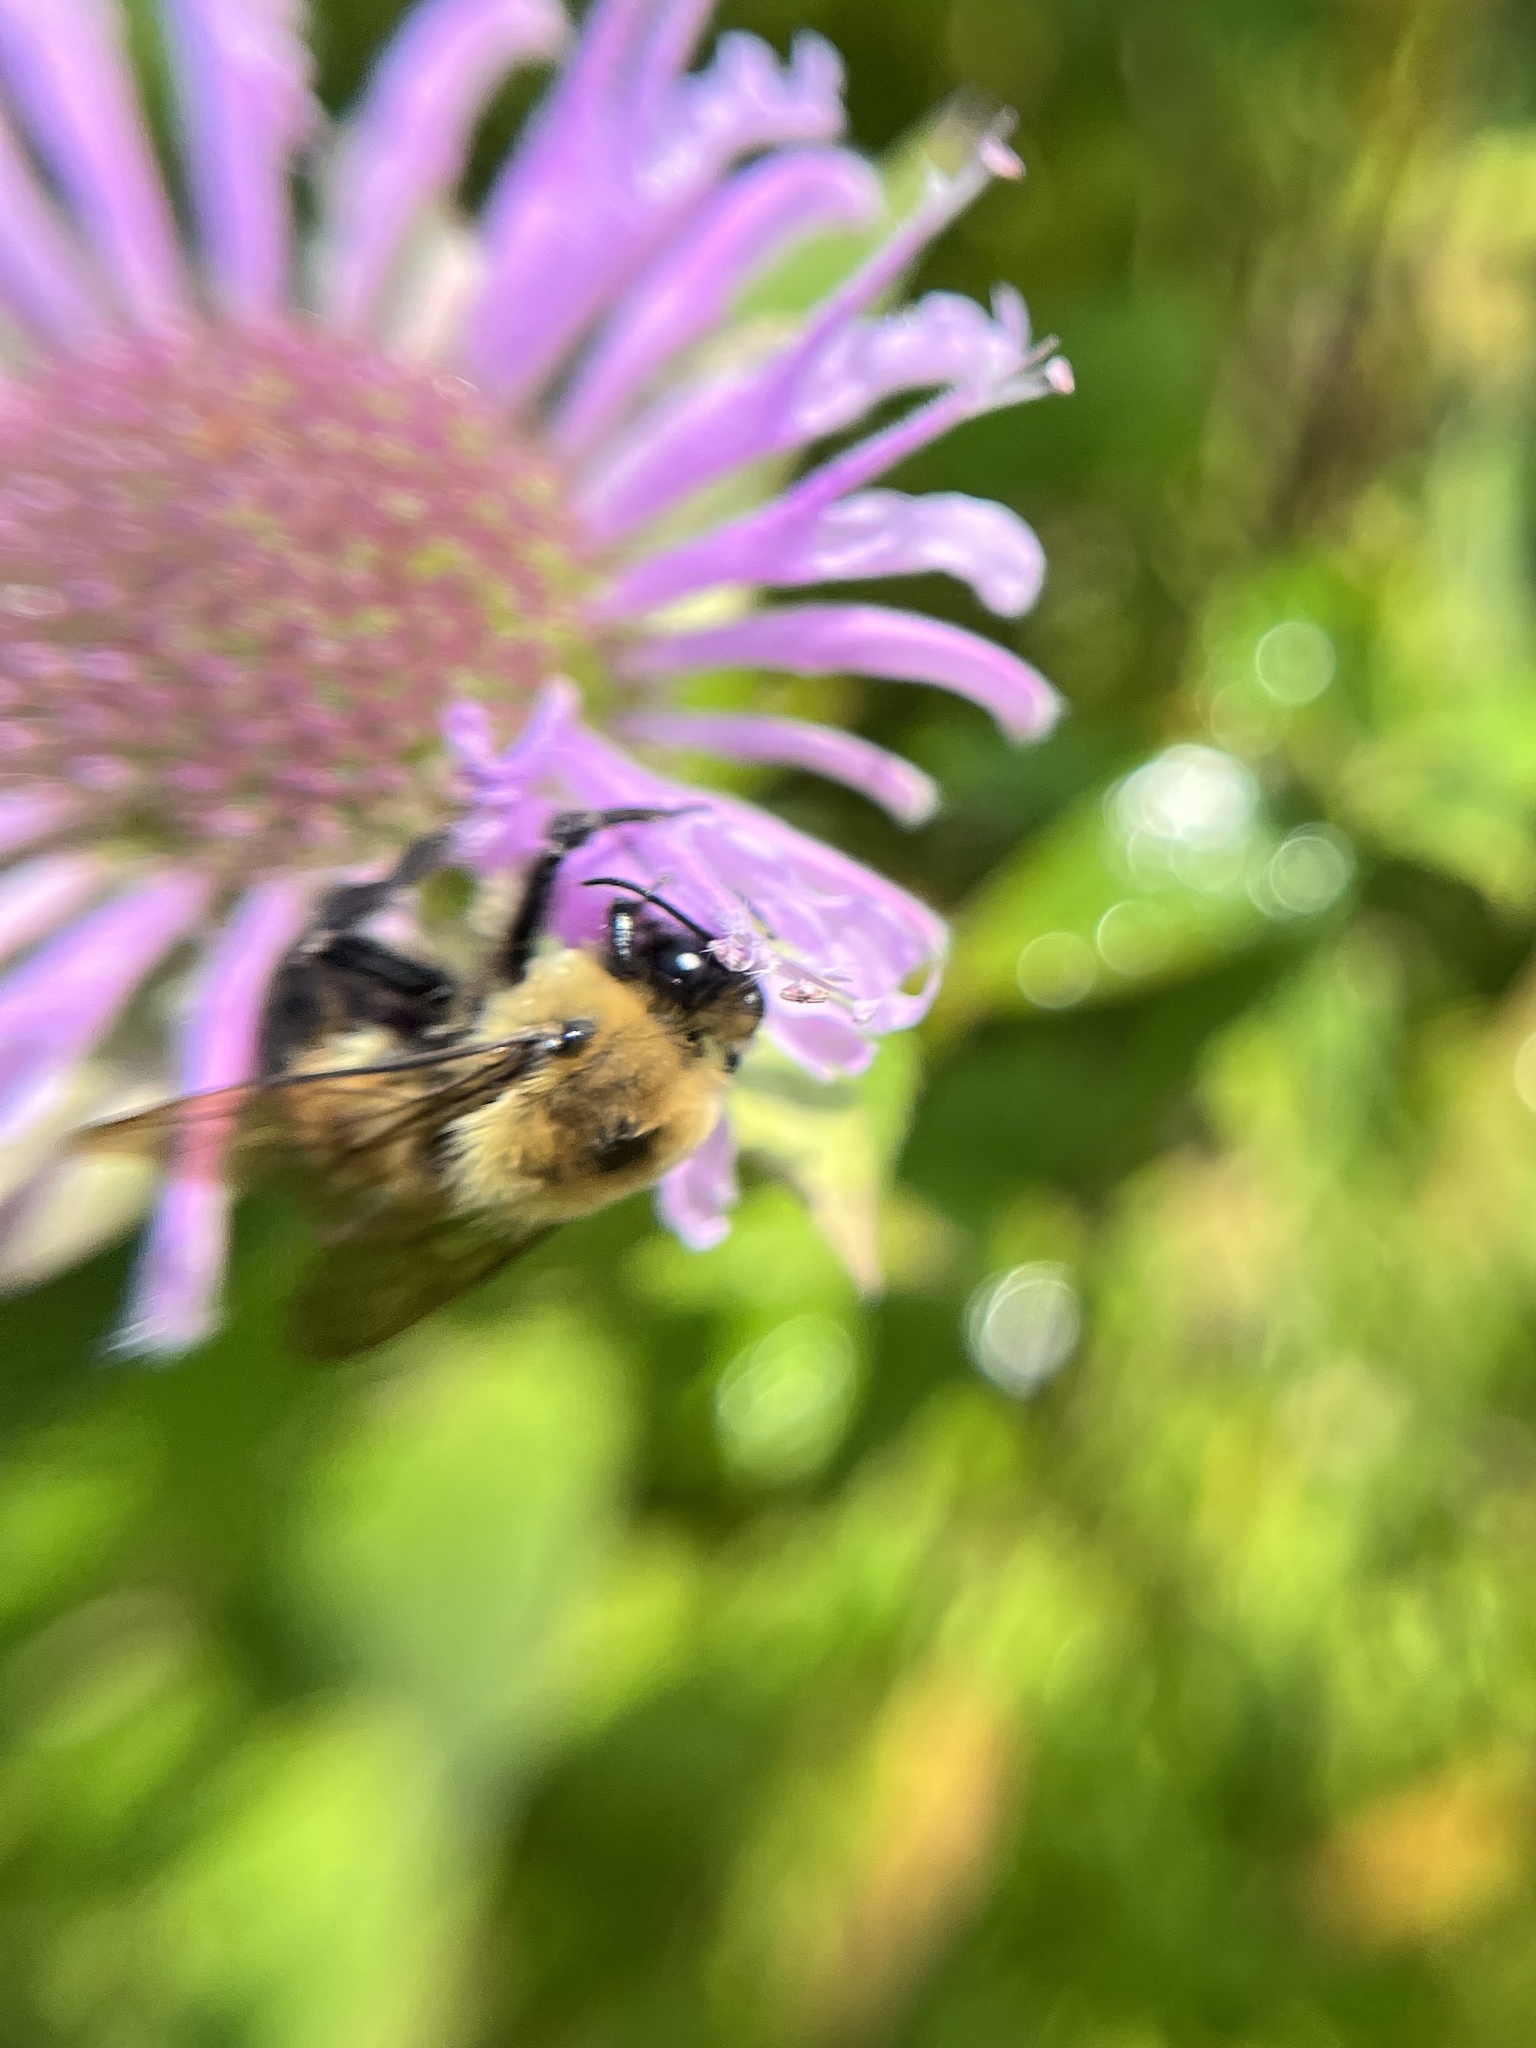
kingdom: Animalia
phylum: Arthropoda
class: Insecta
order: Hymenoptera
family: Apidae
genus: Bombus
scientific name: Bombus griseocollis
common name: Brown-belted bumble bee
